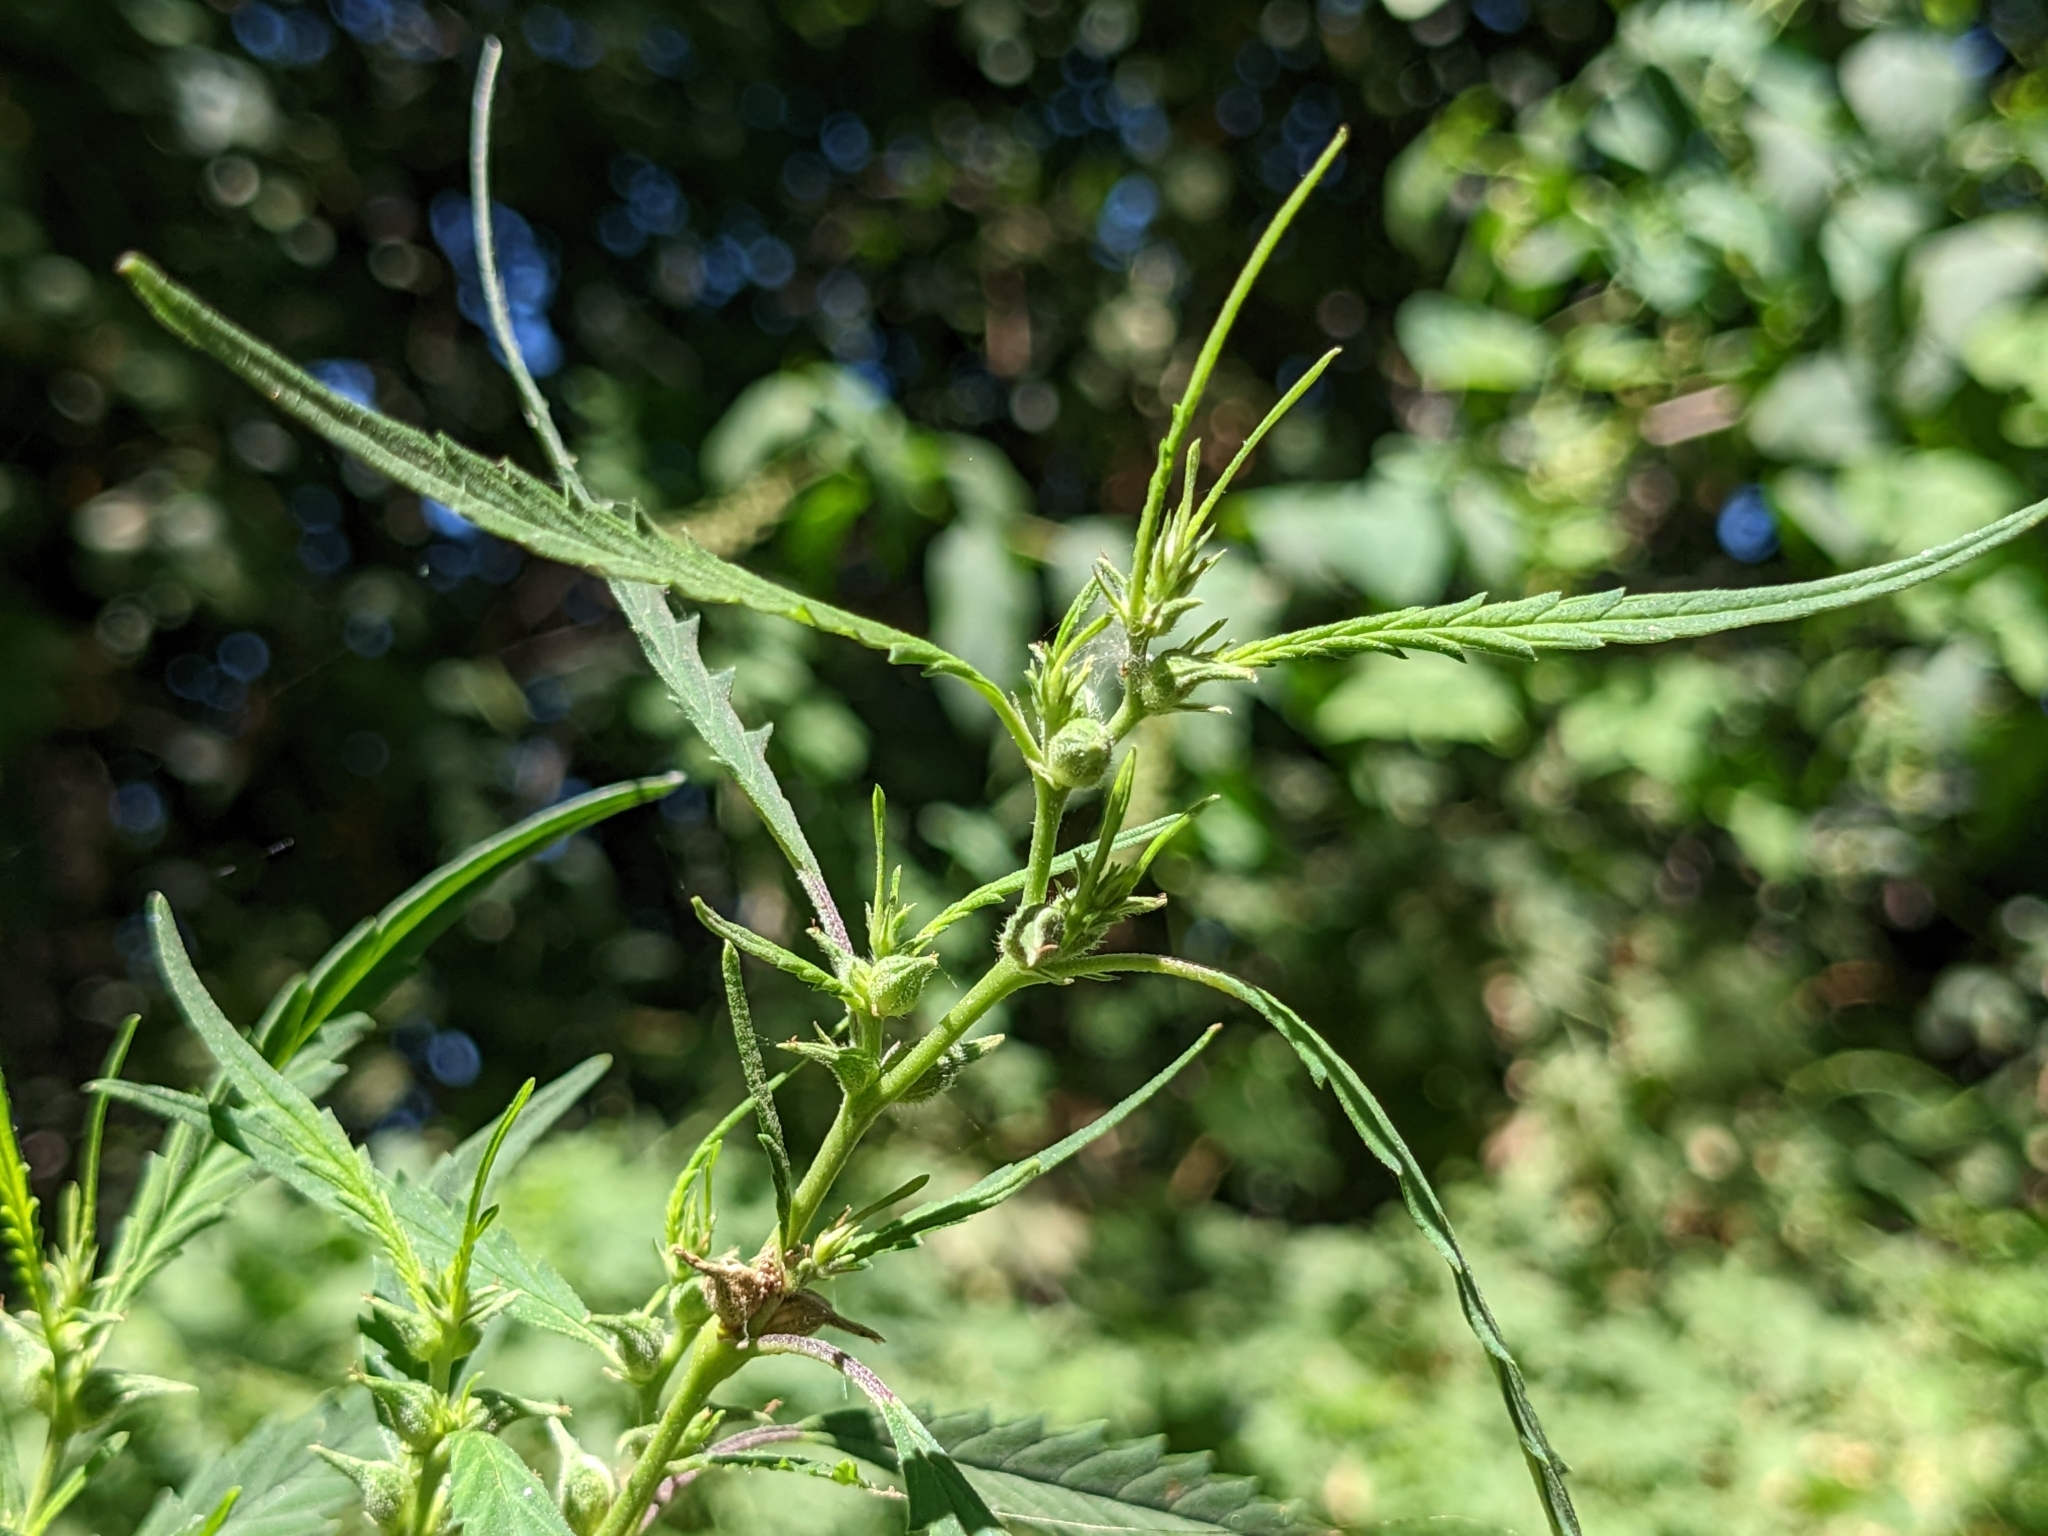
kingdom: Plantae
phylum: Tracheophyta
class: Magnoliopsida
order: Rosales
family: Cannabaceae
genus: Cannabis
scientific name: Cannabis sativa
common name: Hemp
